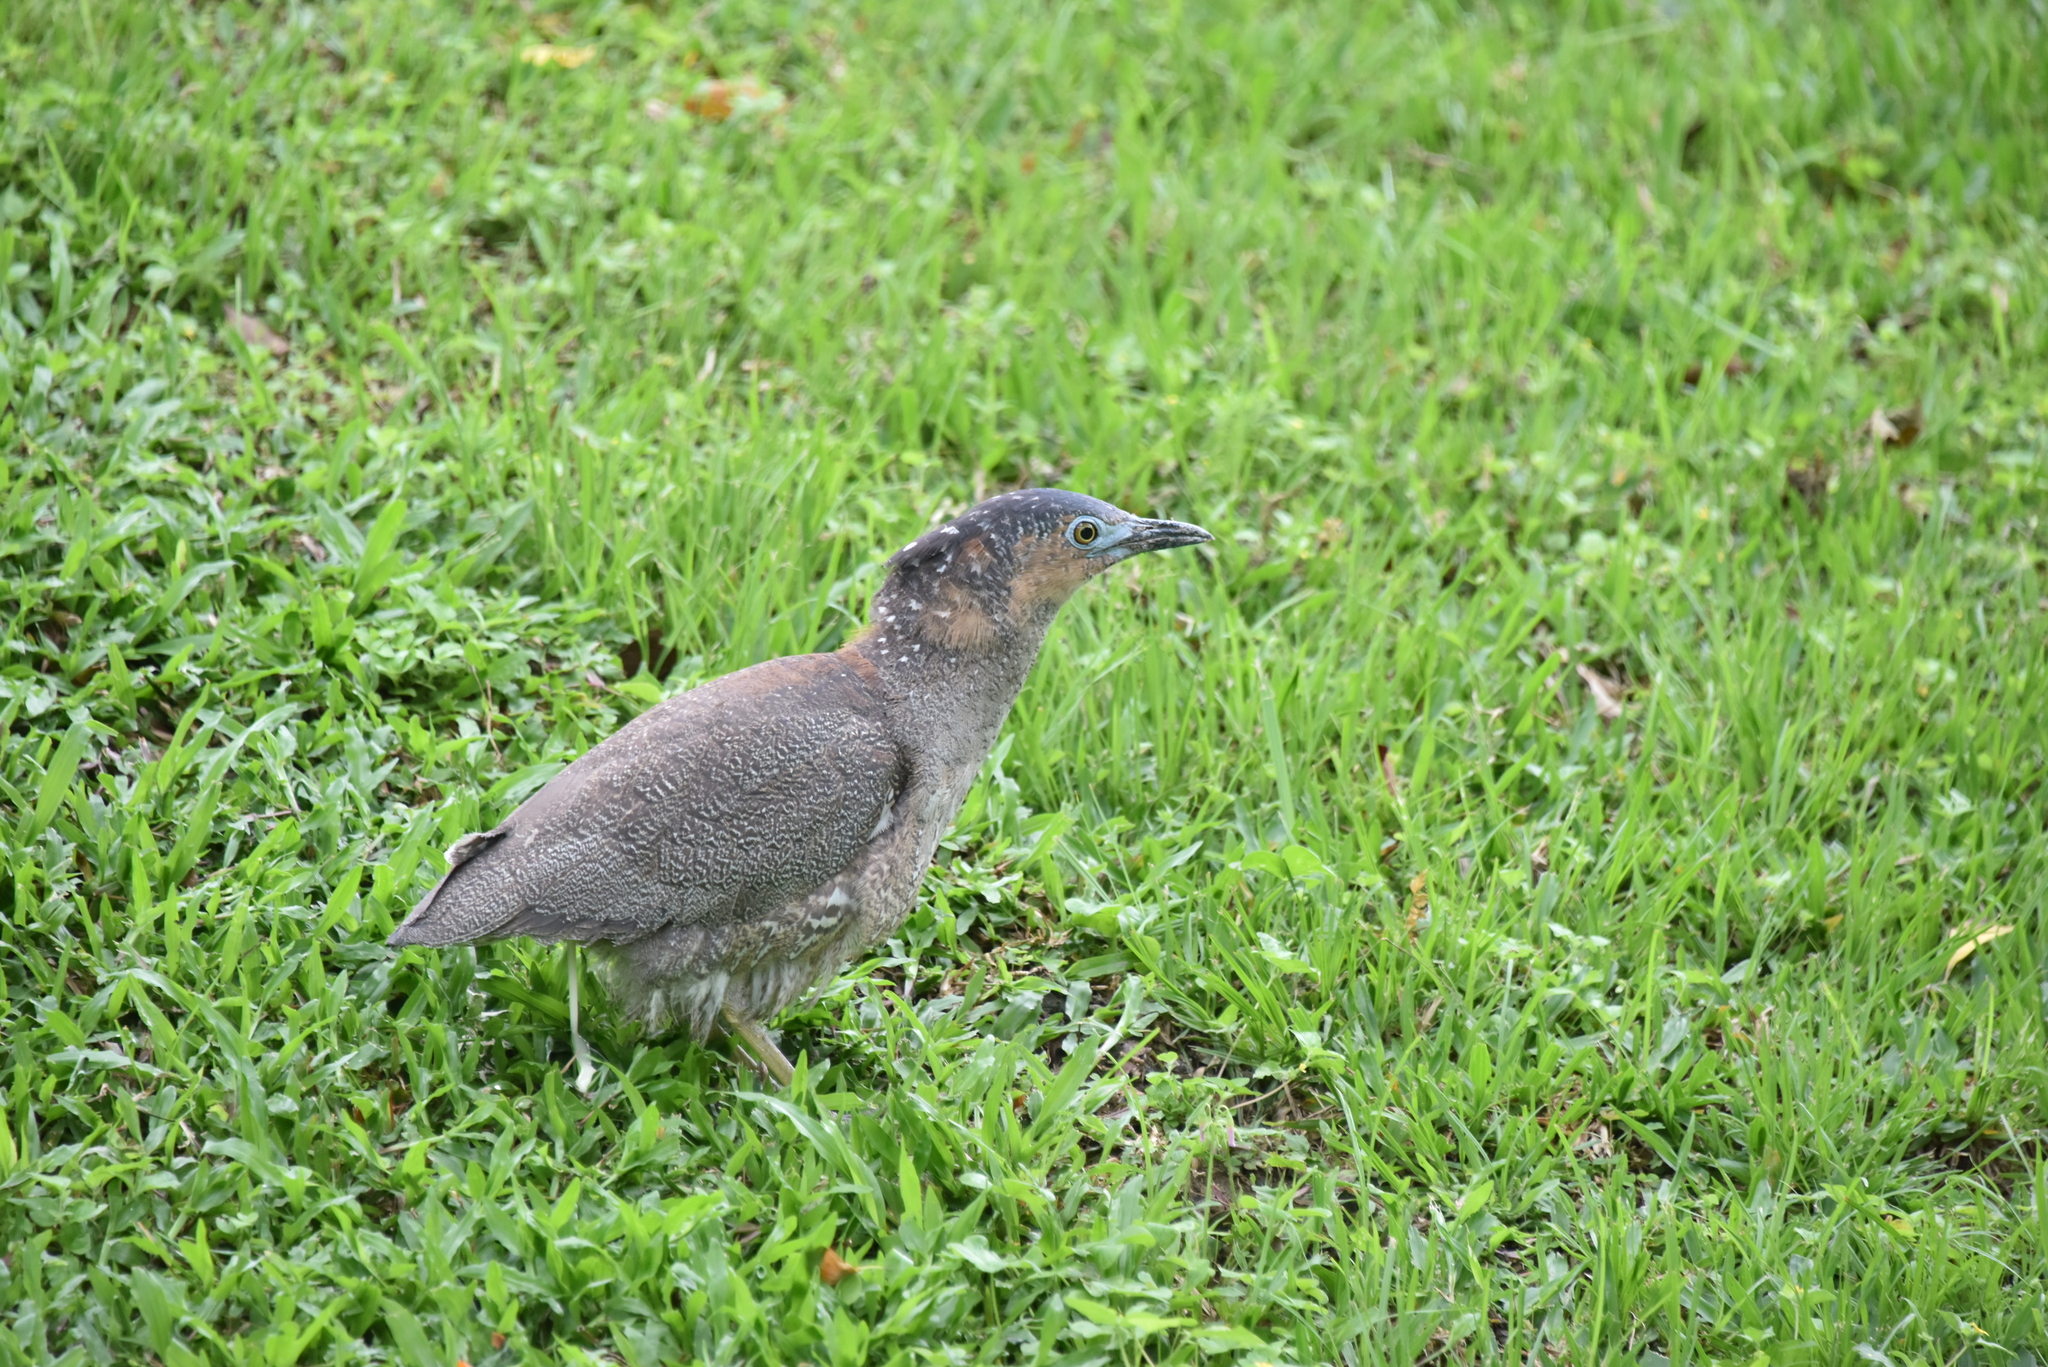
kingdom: Animalia
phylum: Chordata
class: Aves
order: Pelecaniformes
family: Ardeidae
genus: Gorsachius
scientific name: Gorsachius melanolophus
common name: Malayan night heron
